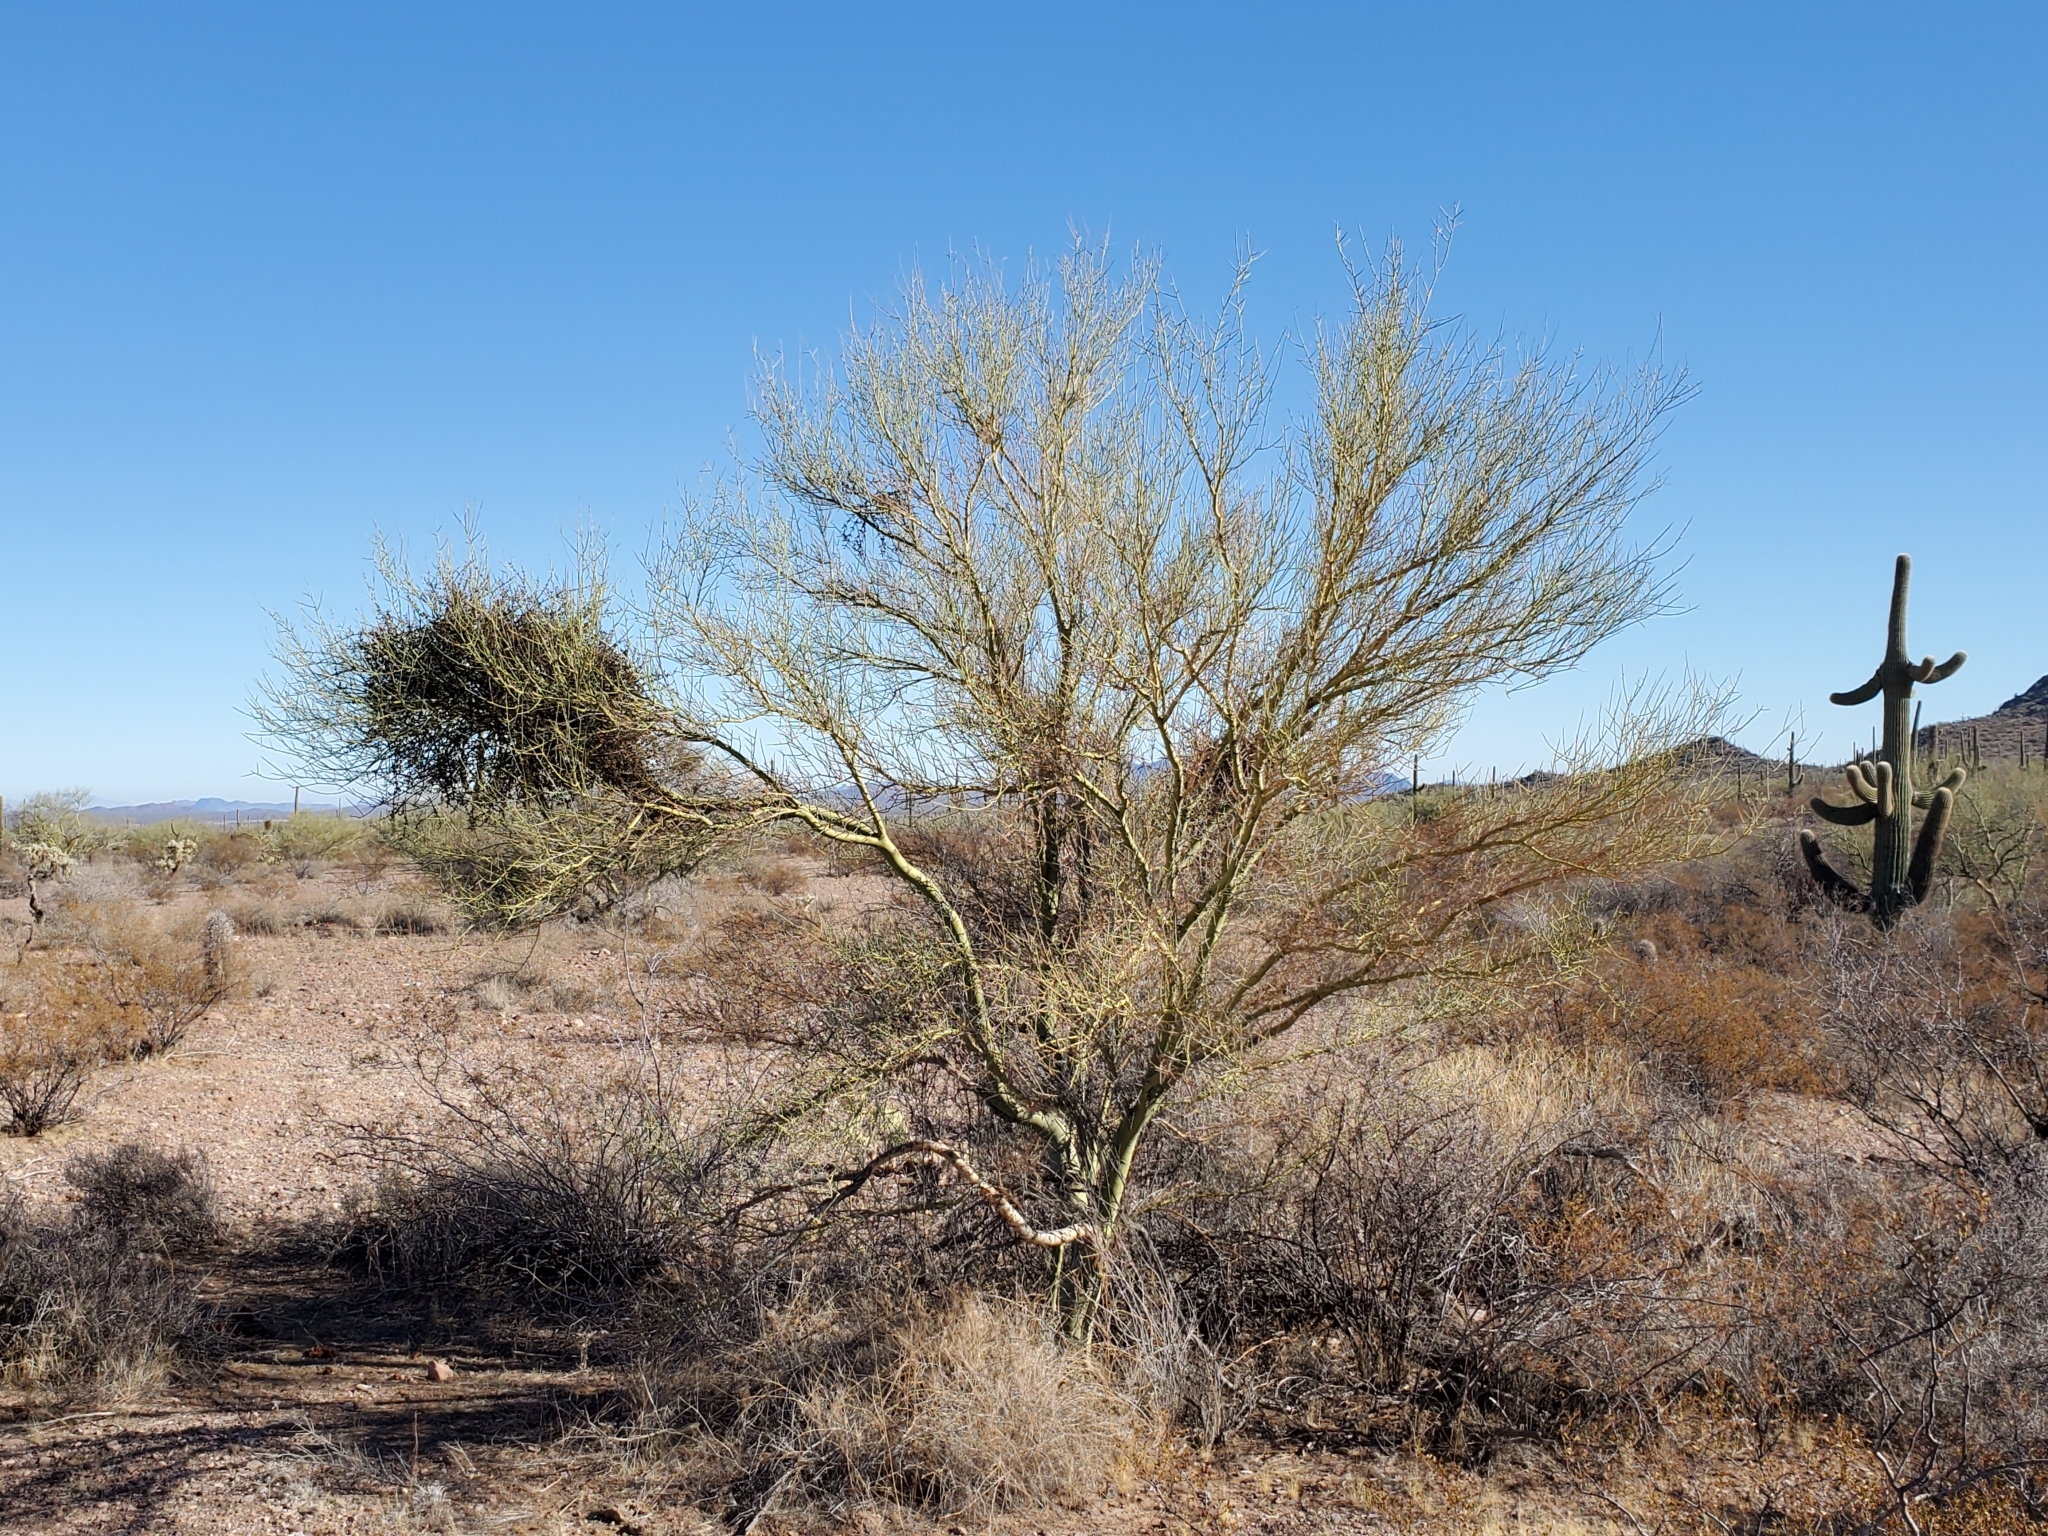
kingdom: Plantae
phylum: Tracheophyta
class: Magnoliopsida
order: Santalales
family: Viscaceae
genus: Phoradendron
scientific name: Phoradendron californicum
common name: Acacia mistletoe
